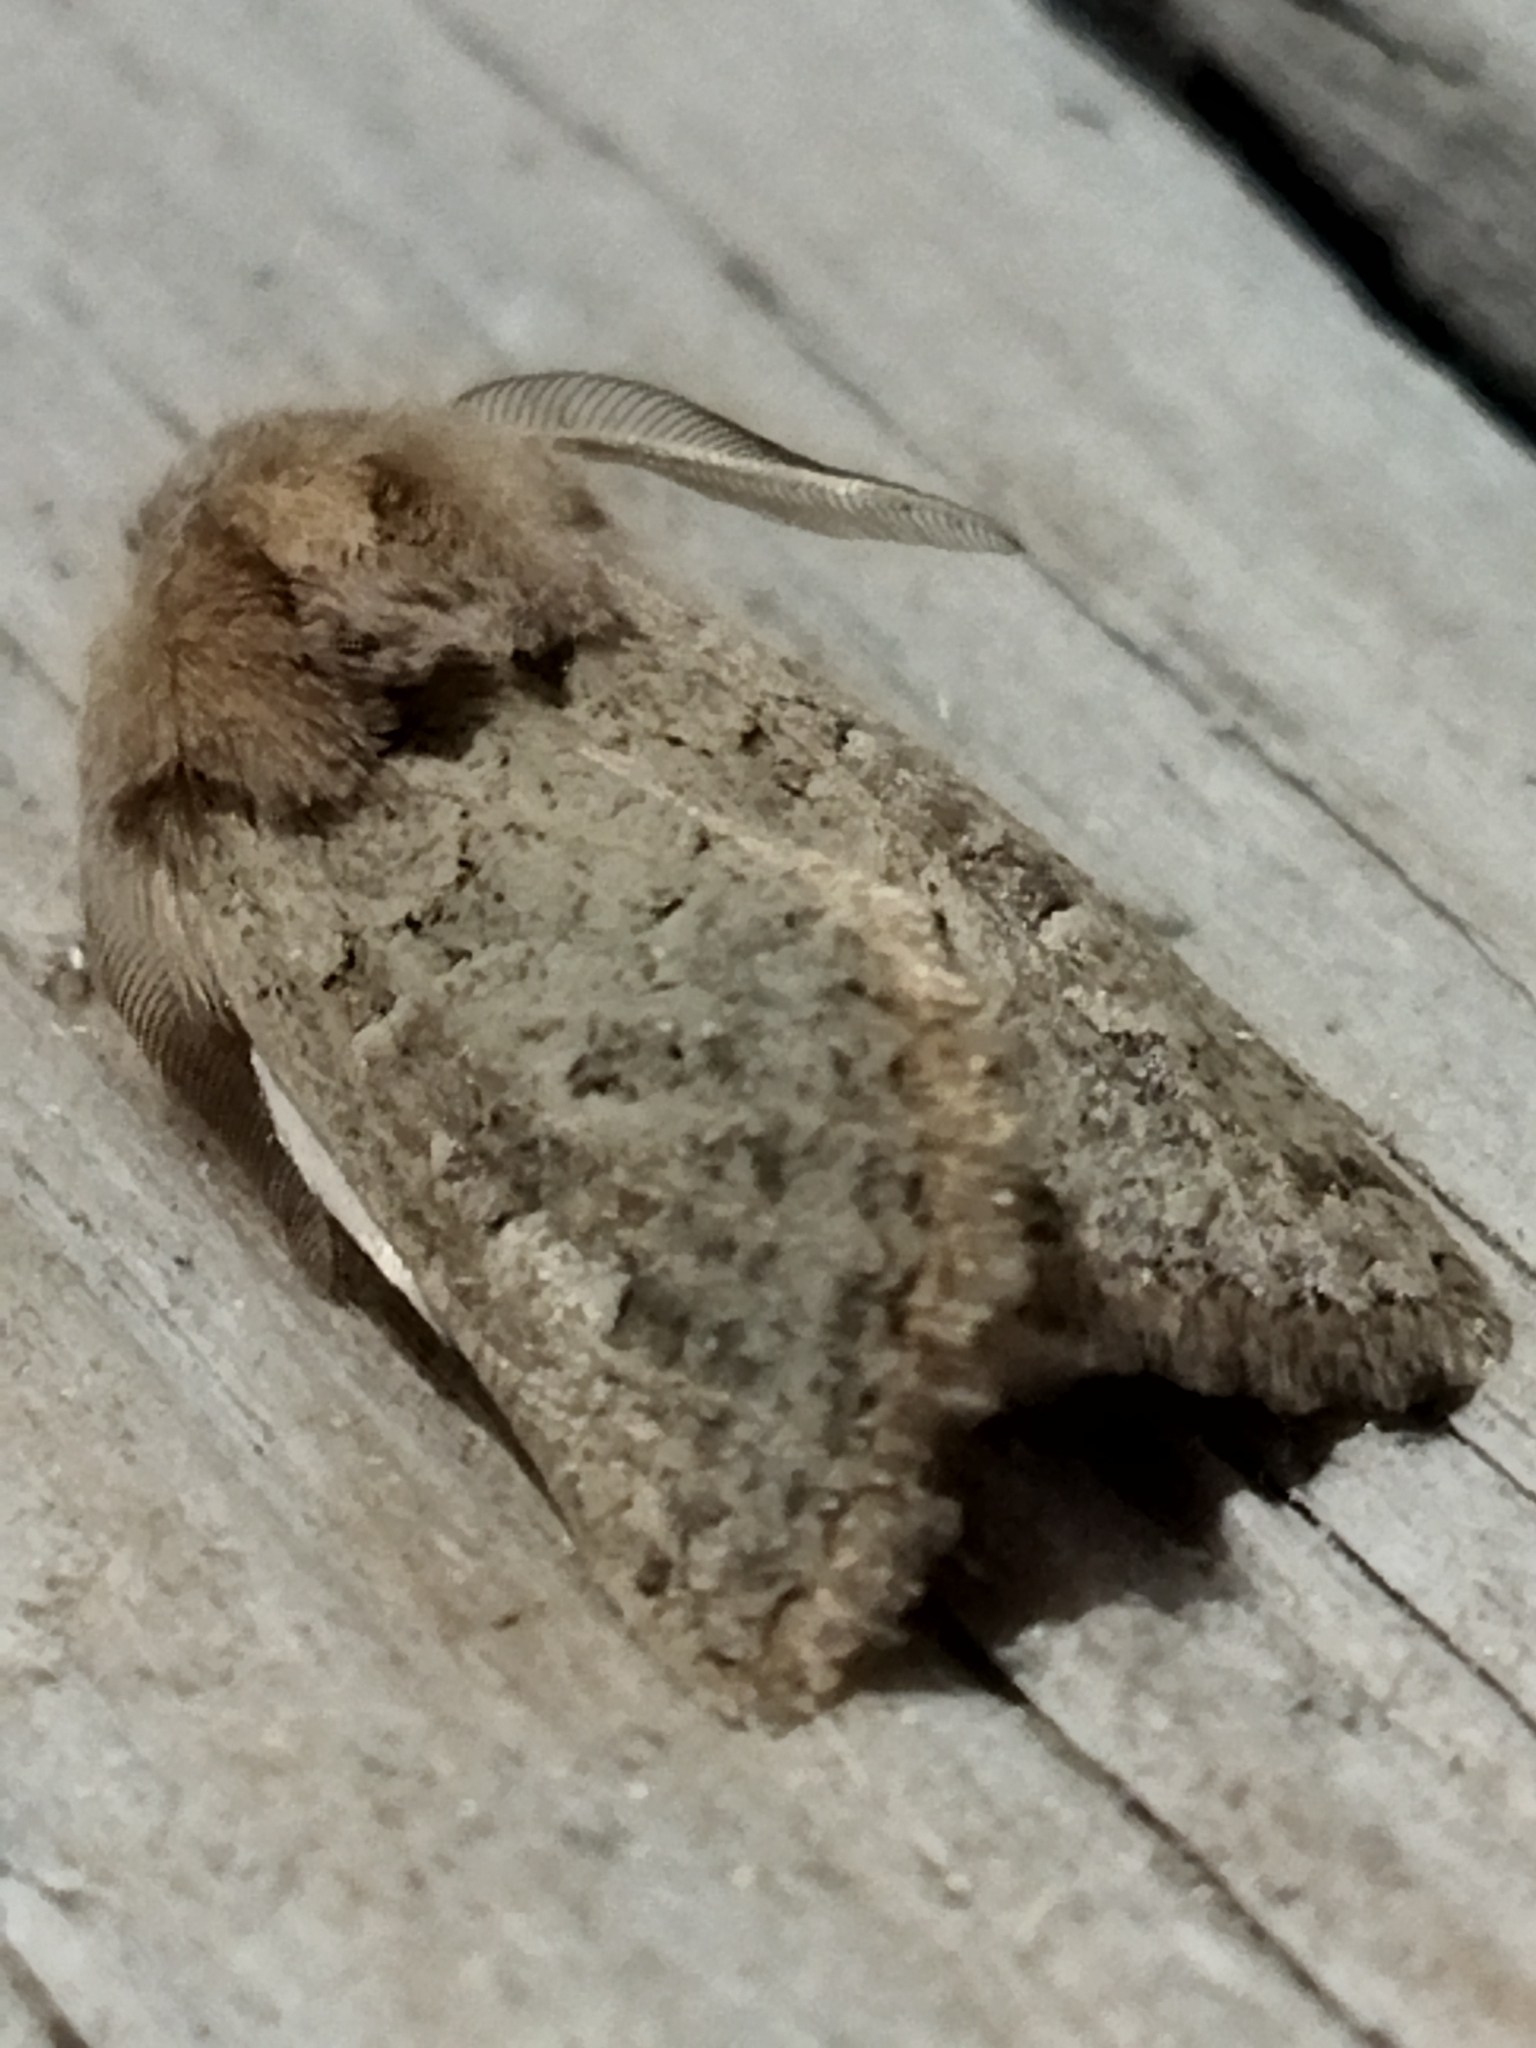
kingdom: Animalia
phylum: Arthropoda
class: Insecta
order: Lepidoptera
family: Noctuidae
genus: Episema
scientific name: Episema lederi
